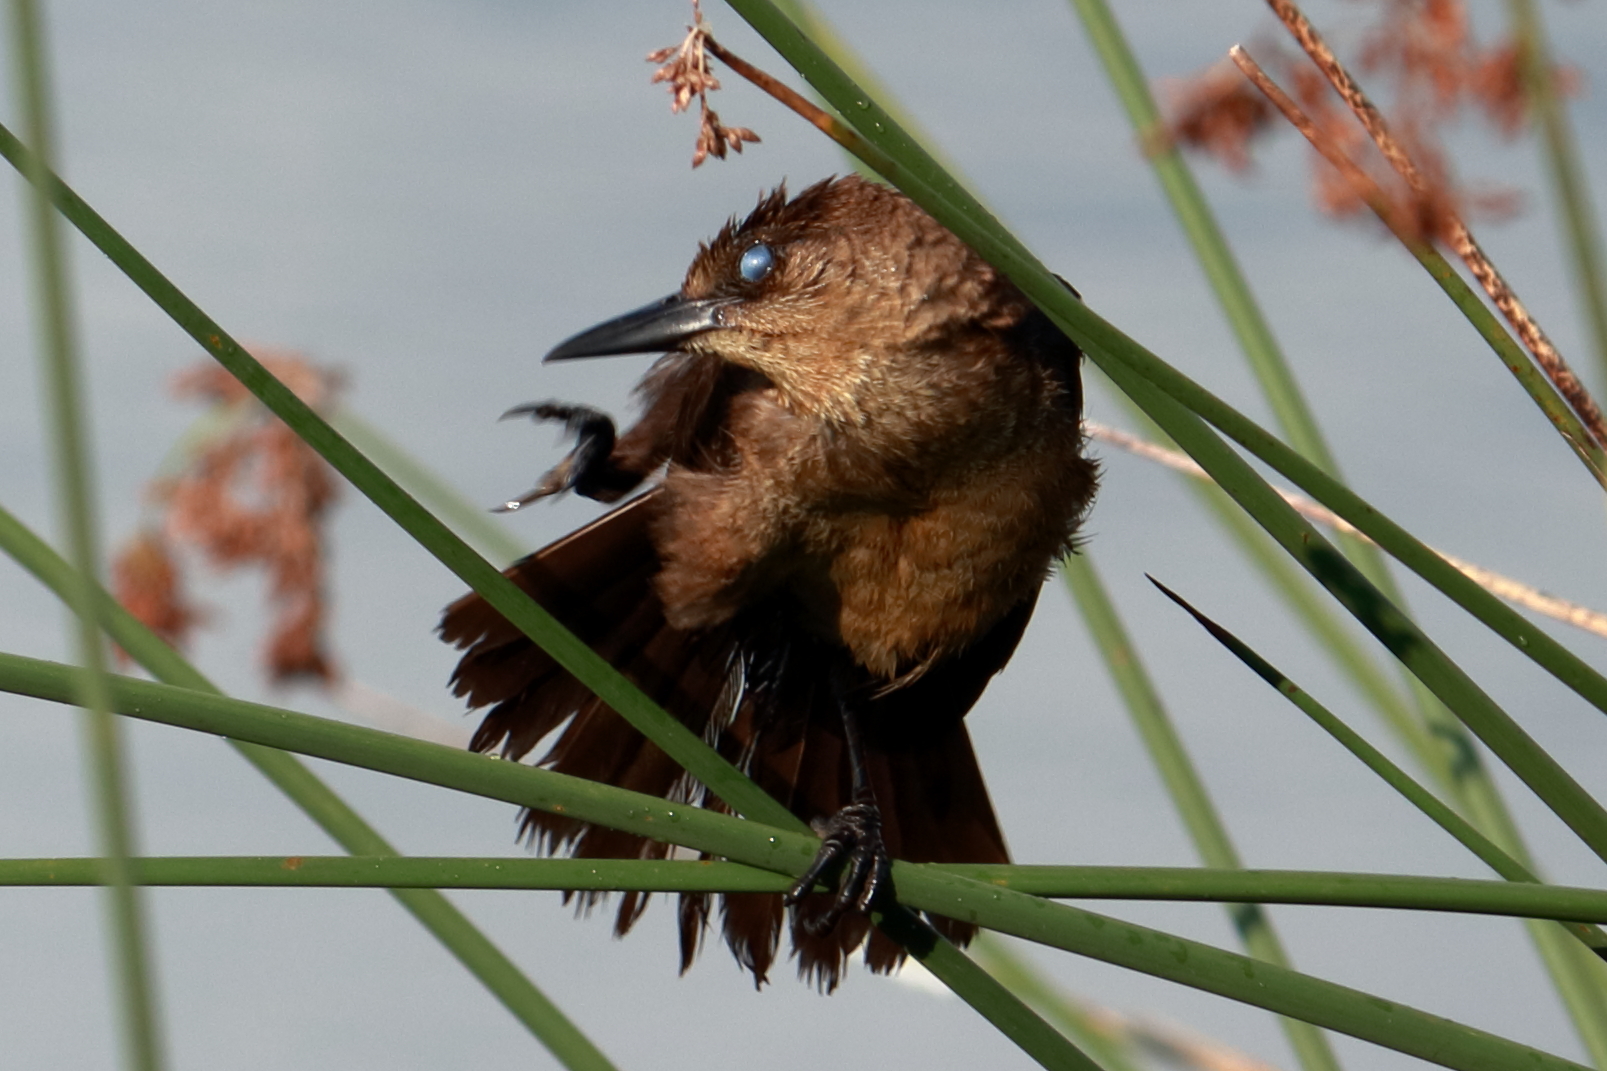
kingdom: Animalia
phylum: Chordata
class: Aves
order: Passeriformes
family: Icteridae
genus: Quiscalus
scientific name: Quiscalus major
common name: Boat-tailed grackle
